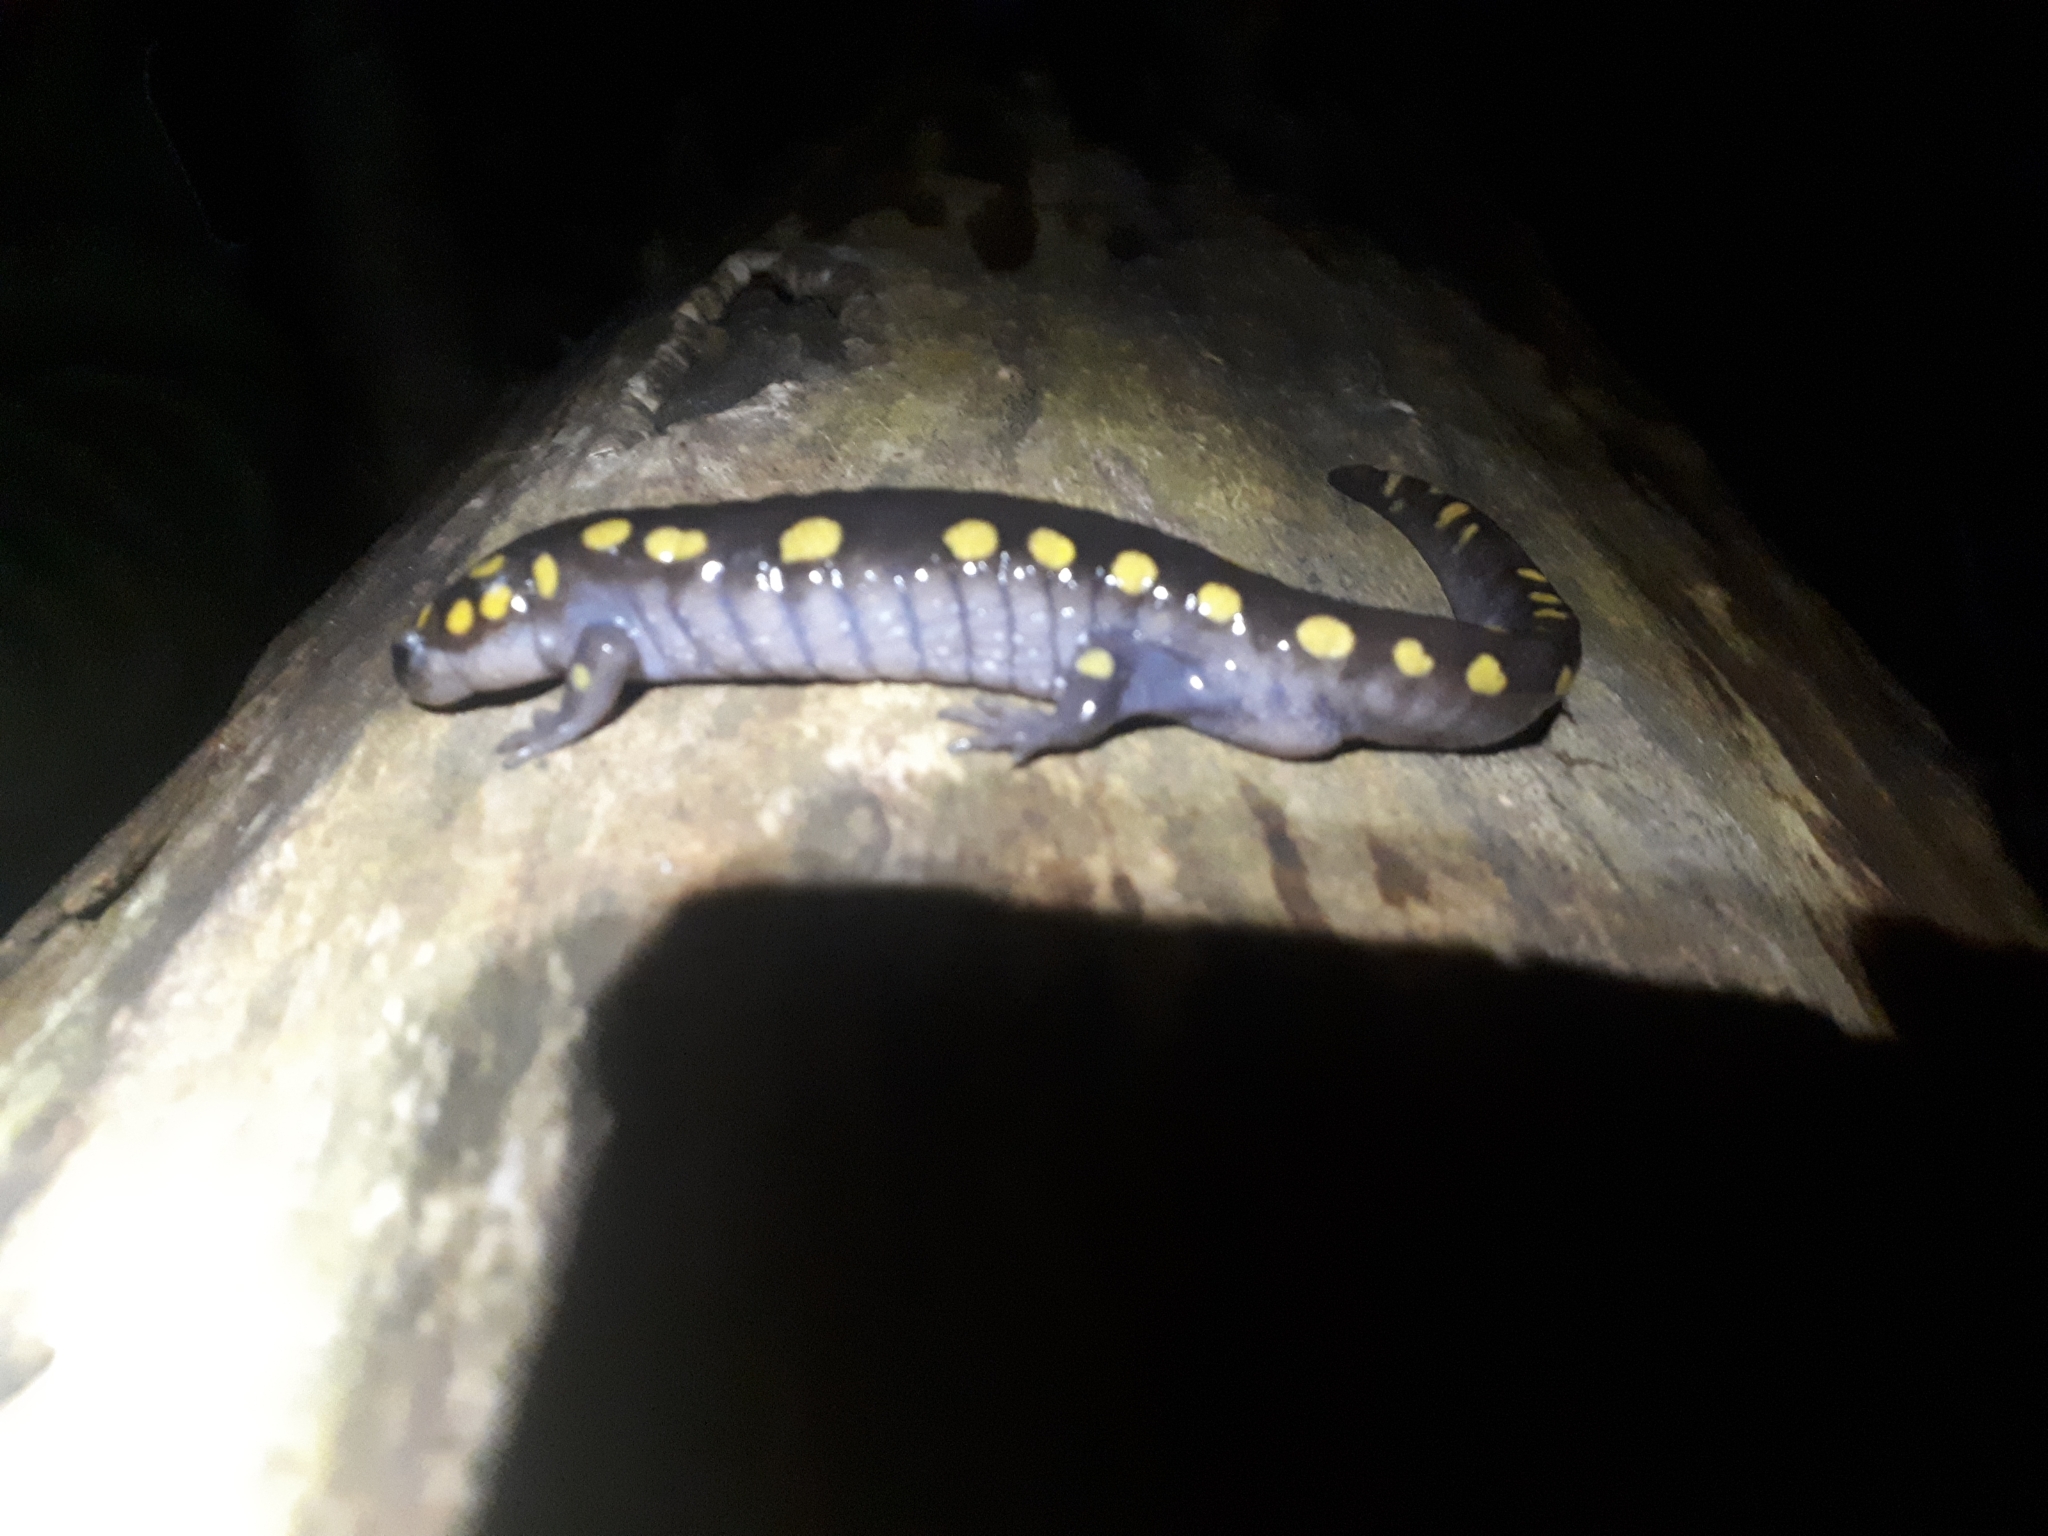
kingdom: Animalia
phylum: Chordata
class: Amphibia
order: Caudata
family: Ambystomatidae
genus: Ambystoma
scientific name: Ambystoma maculatum
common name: Spotted salamander
